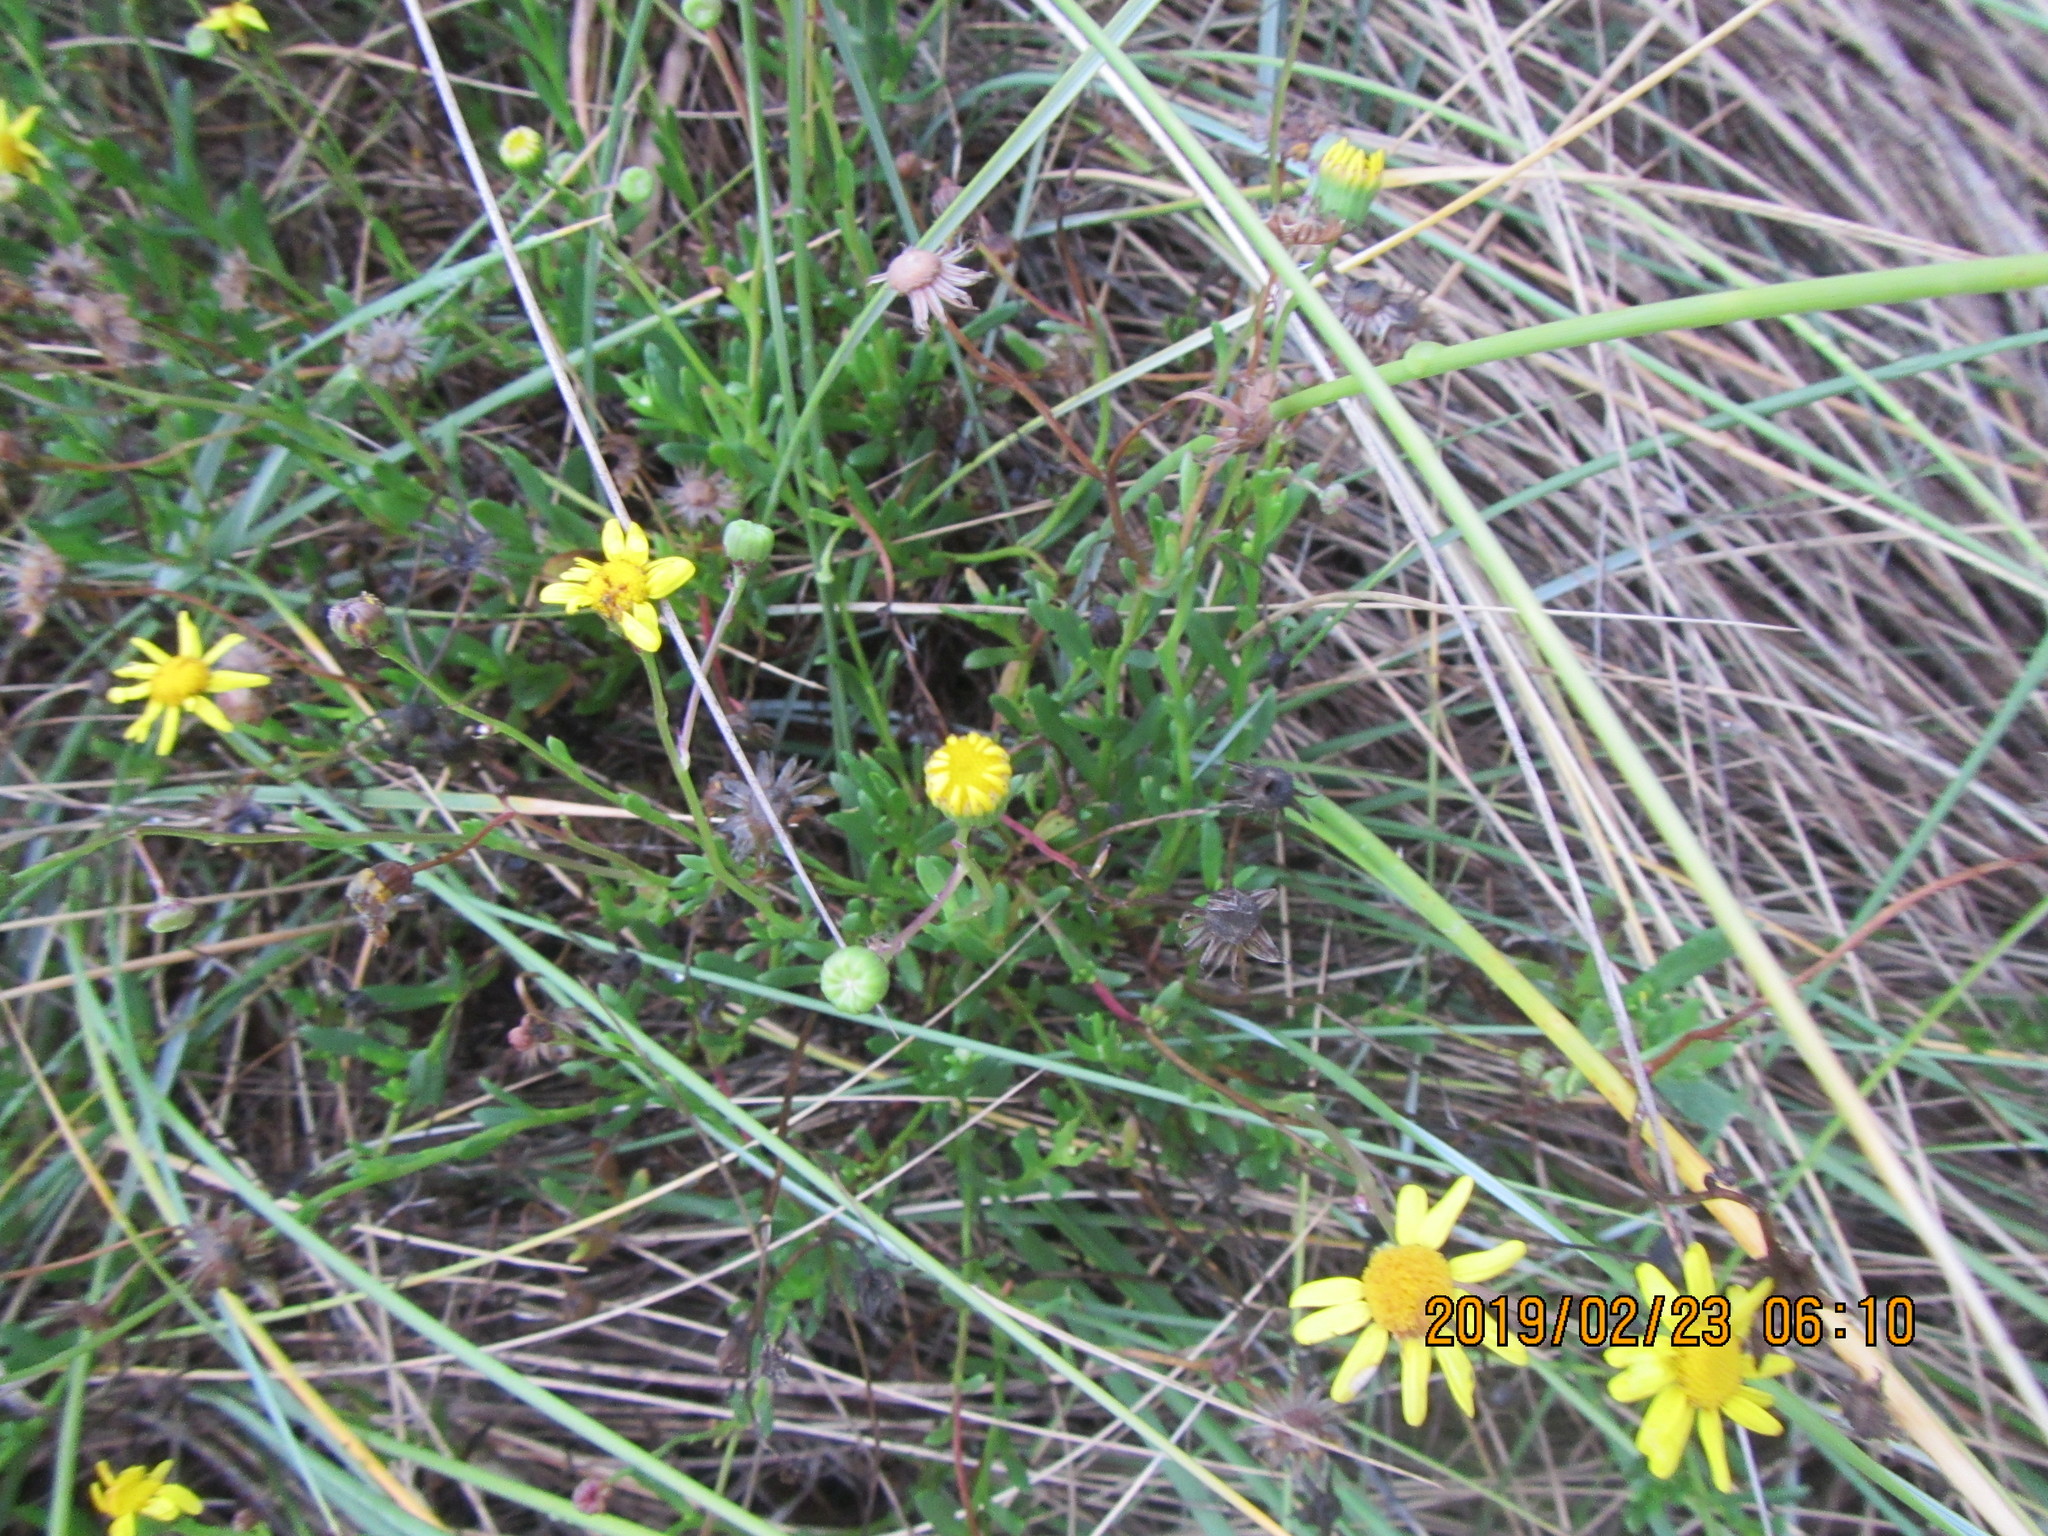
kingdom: Plantae
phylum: Tracheophyta
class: Magnoliopsida
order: Asterales
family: Asteraceae
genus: Senecio
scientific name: Senecio skirrhodon
